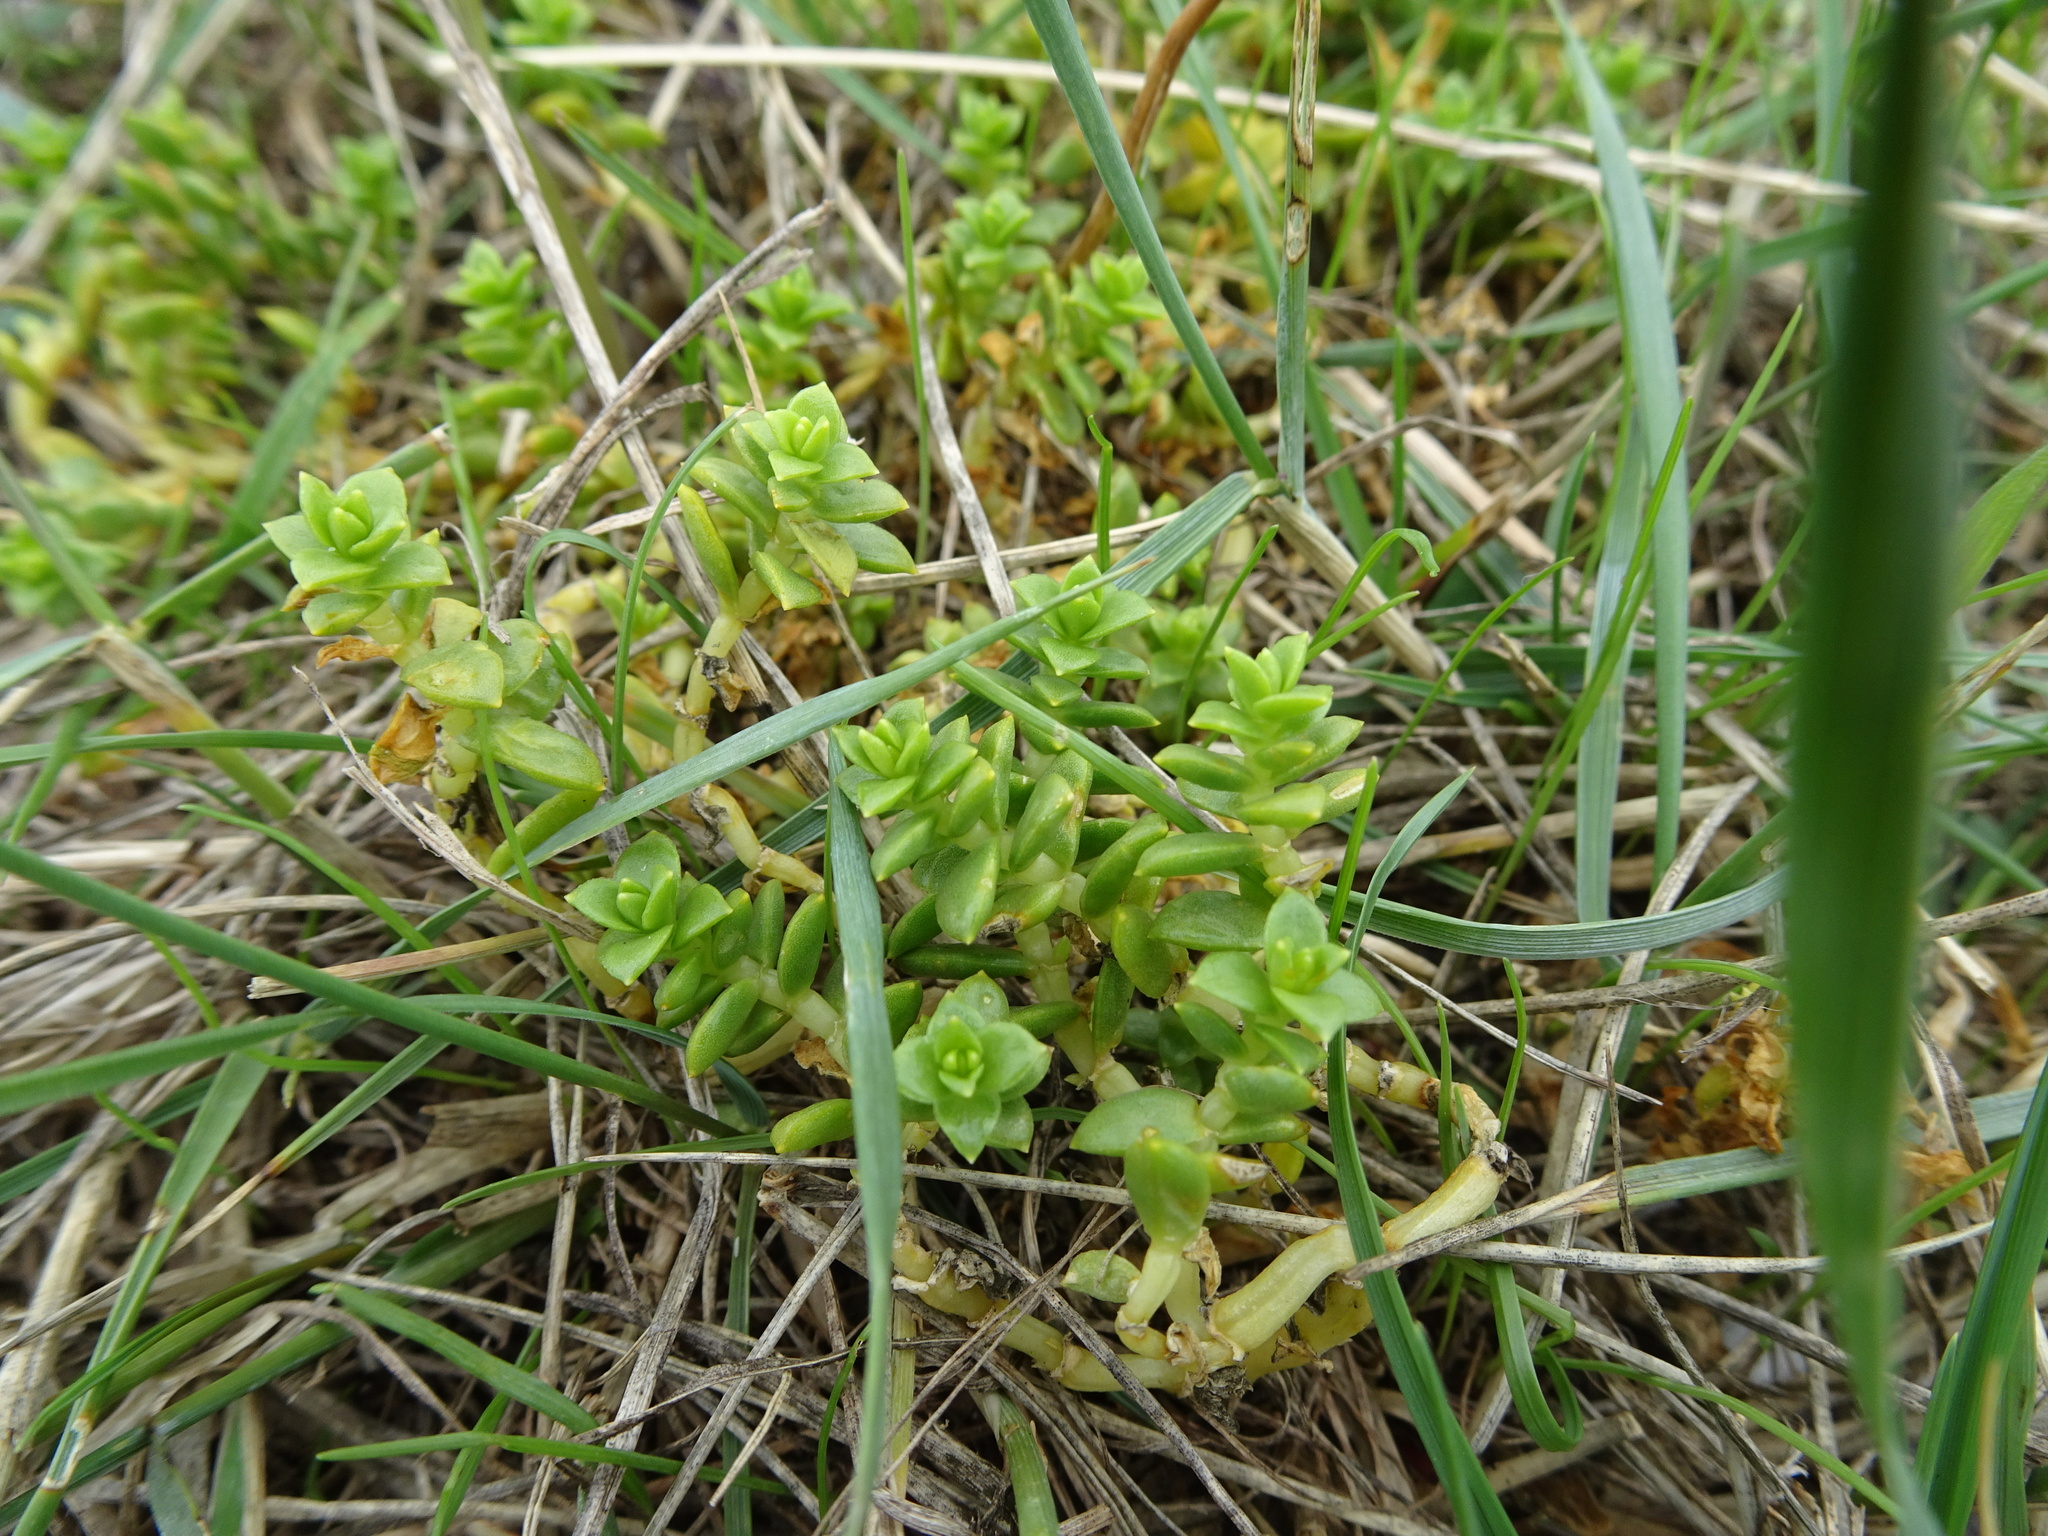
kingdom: Plantae
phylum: Tracheophyta
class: Magnoliopsida
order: Caryophyllales
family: Caryophyllaceae
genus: Honckenya
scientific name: Honckenya peploides
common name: Sea sandwort
